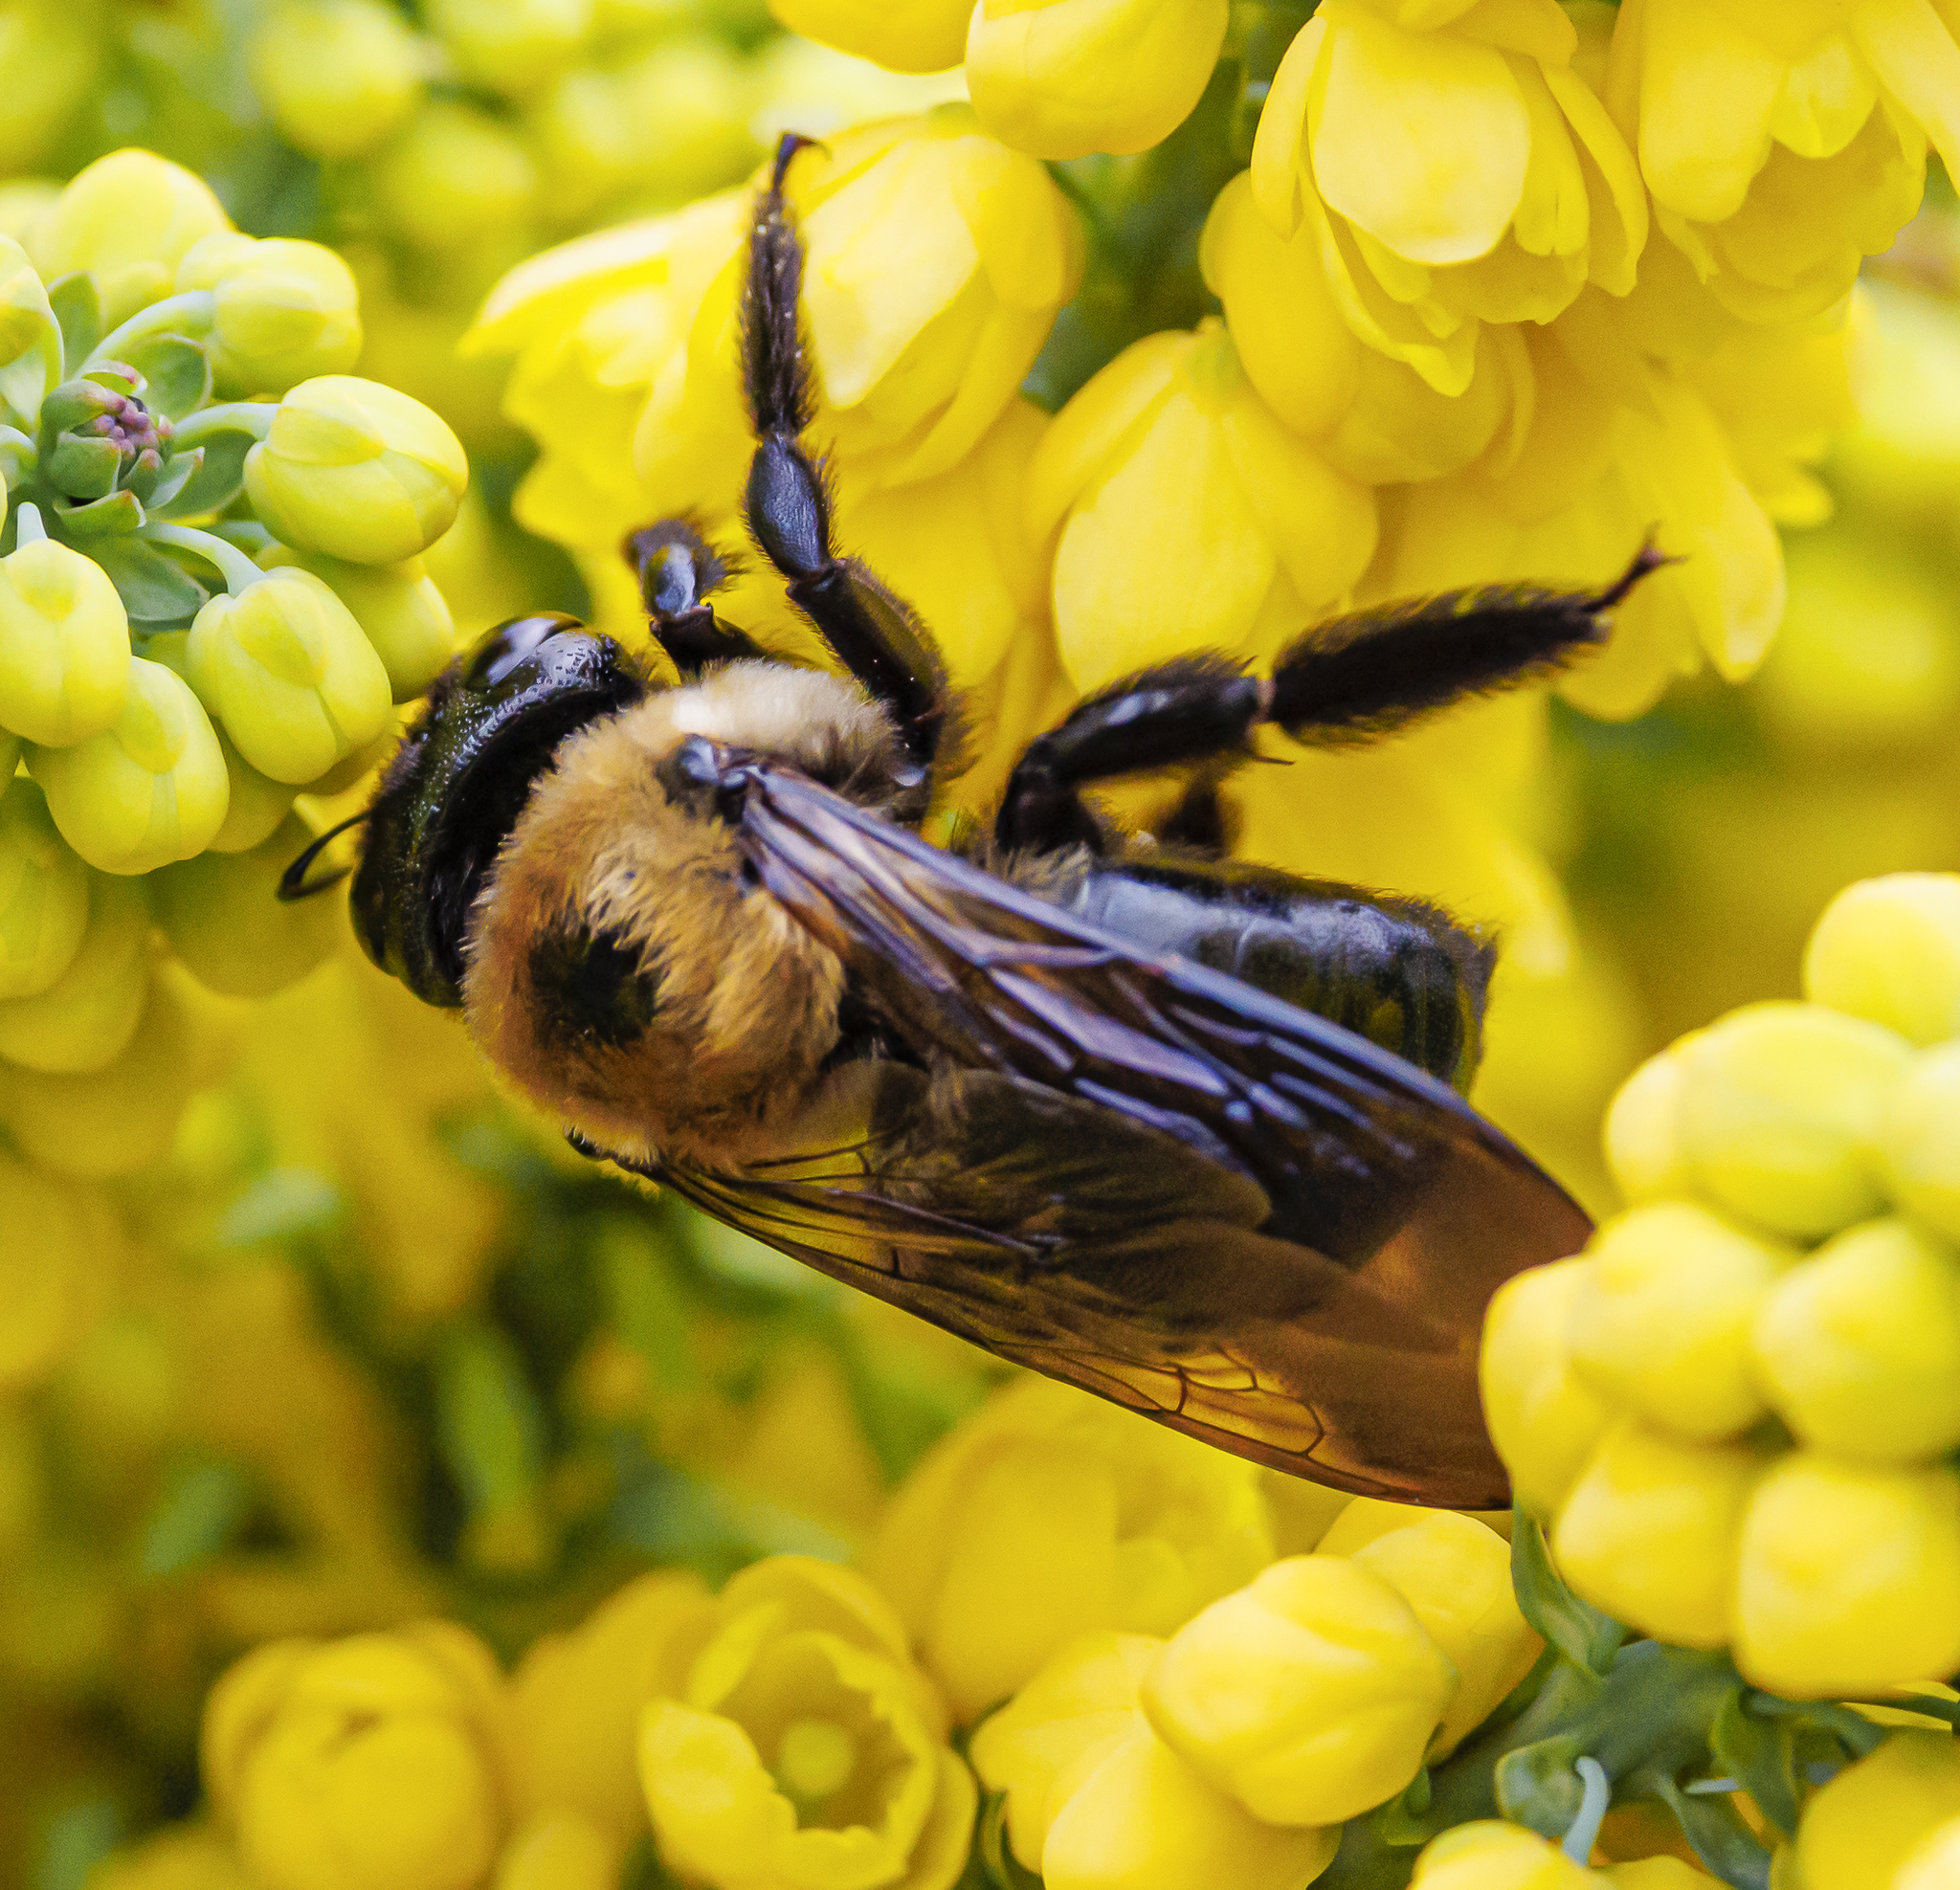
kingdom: Animalia
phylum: Arthropoda
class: Insecta
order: Hymenoptera
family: Apidae
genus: Xylocopa
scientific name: Xylocopa virginica
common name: Carpenter bee
